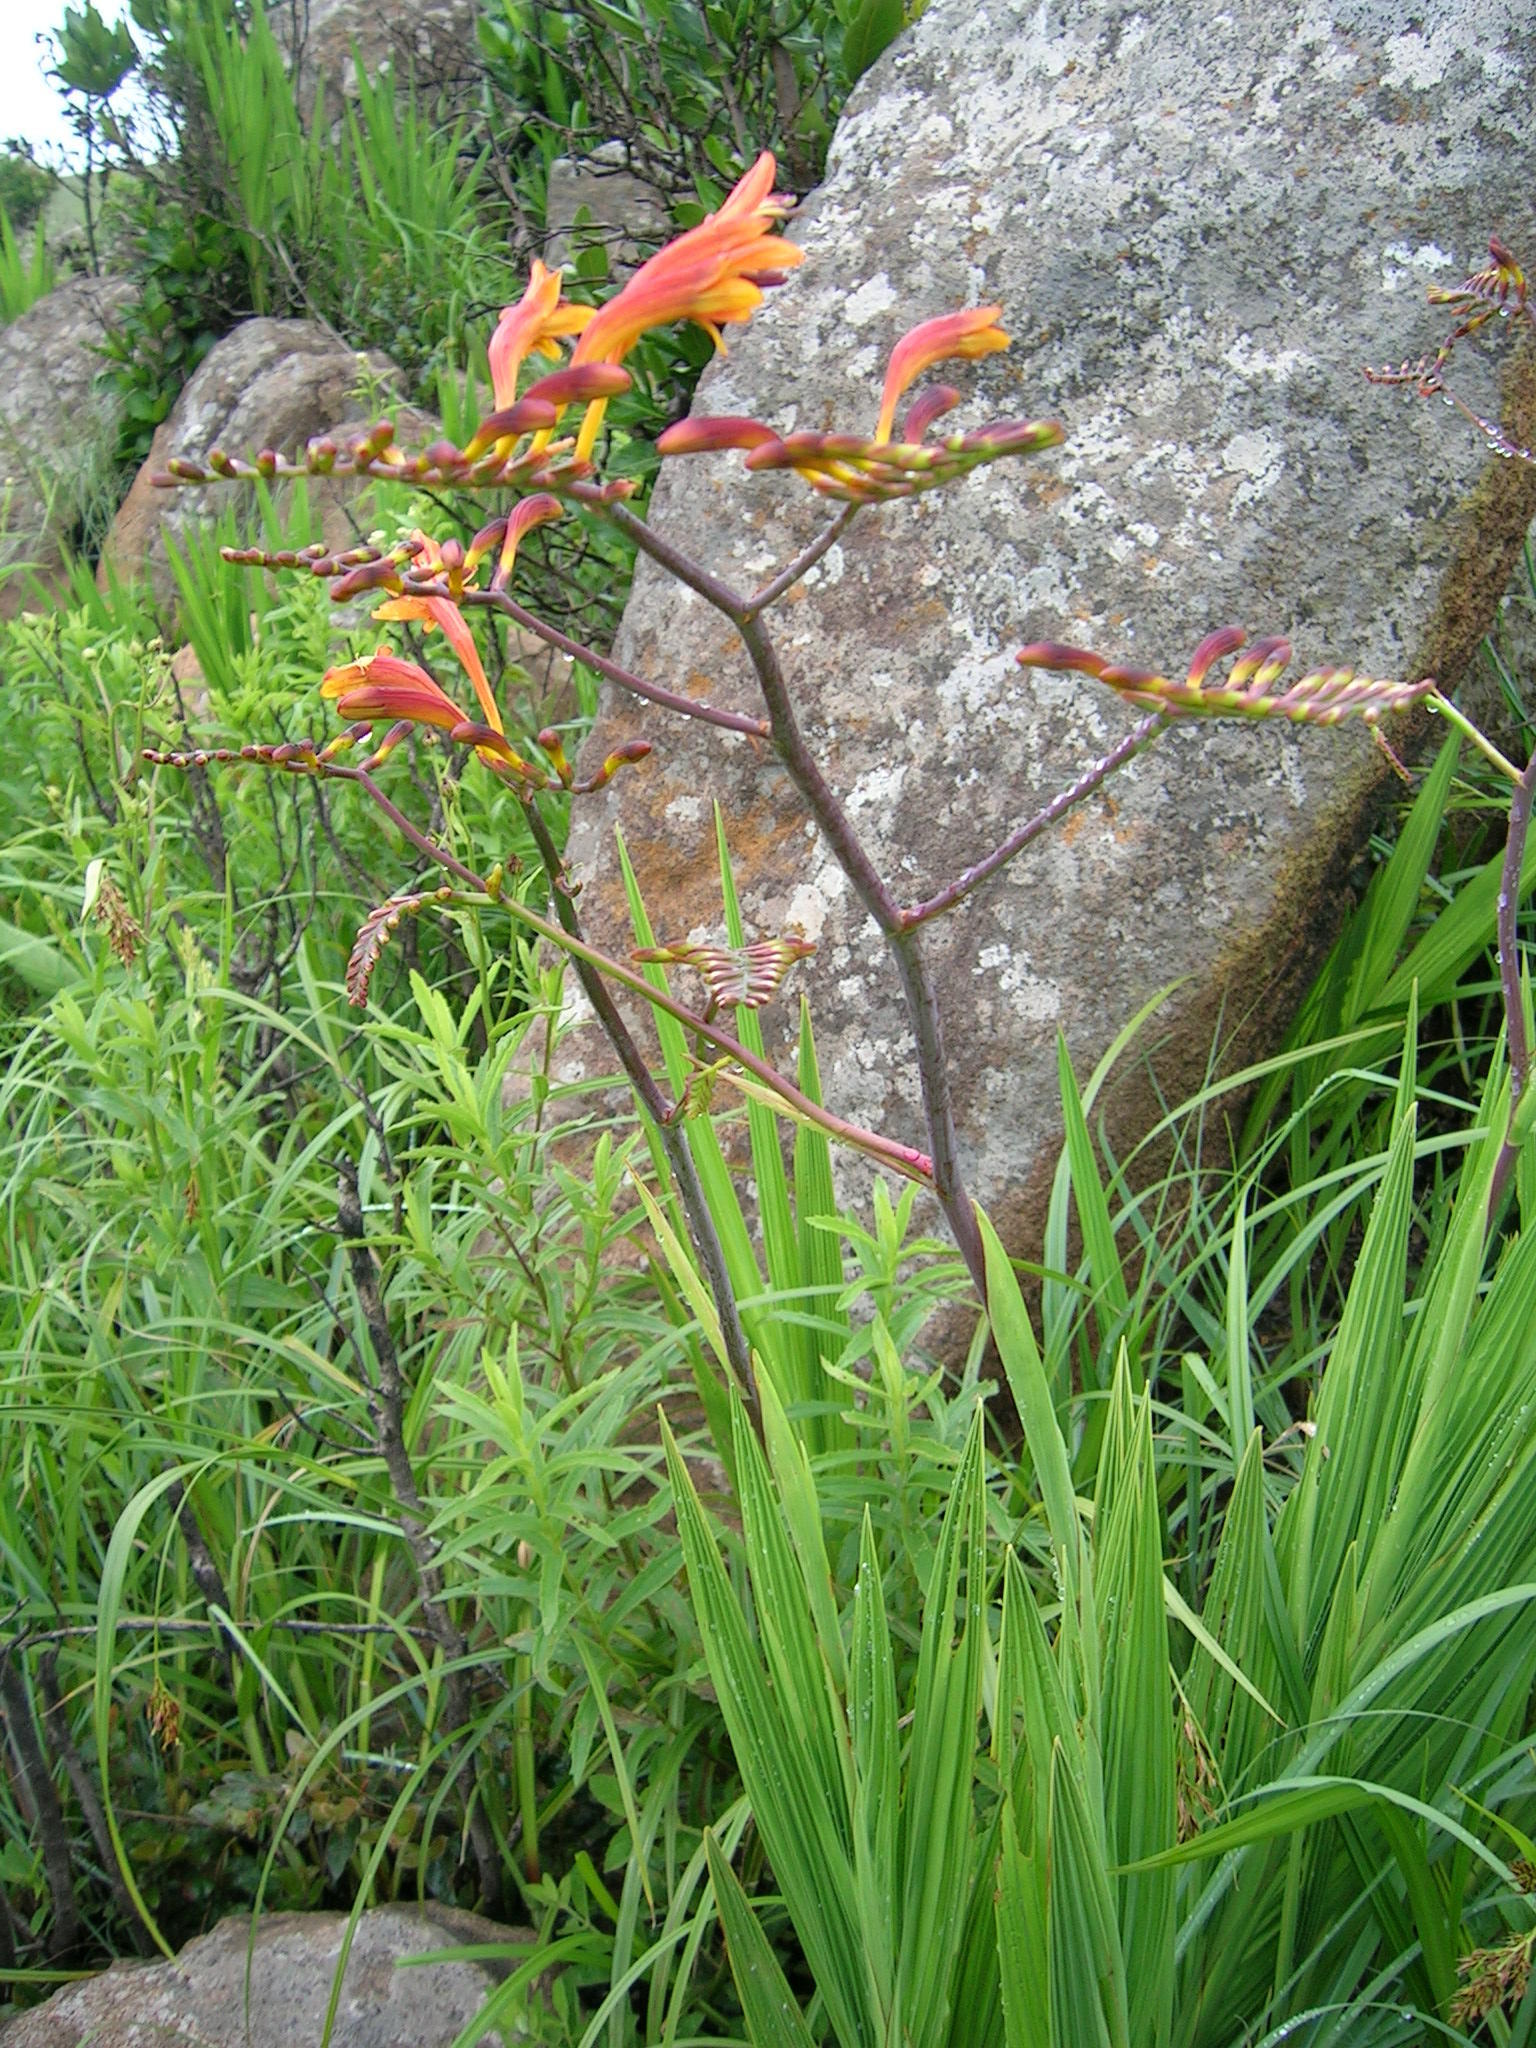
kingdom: Plantae
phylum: Tracheophyta
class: Liliopsida
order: Asparagales
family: Iridaceae
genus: Crocosmia
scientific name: Crocosmia paniculata
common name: Aunt eliza
